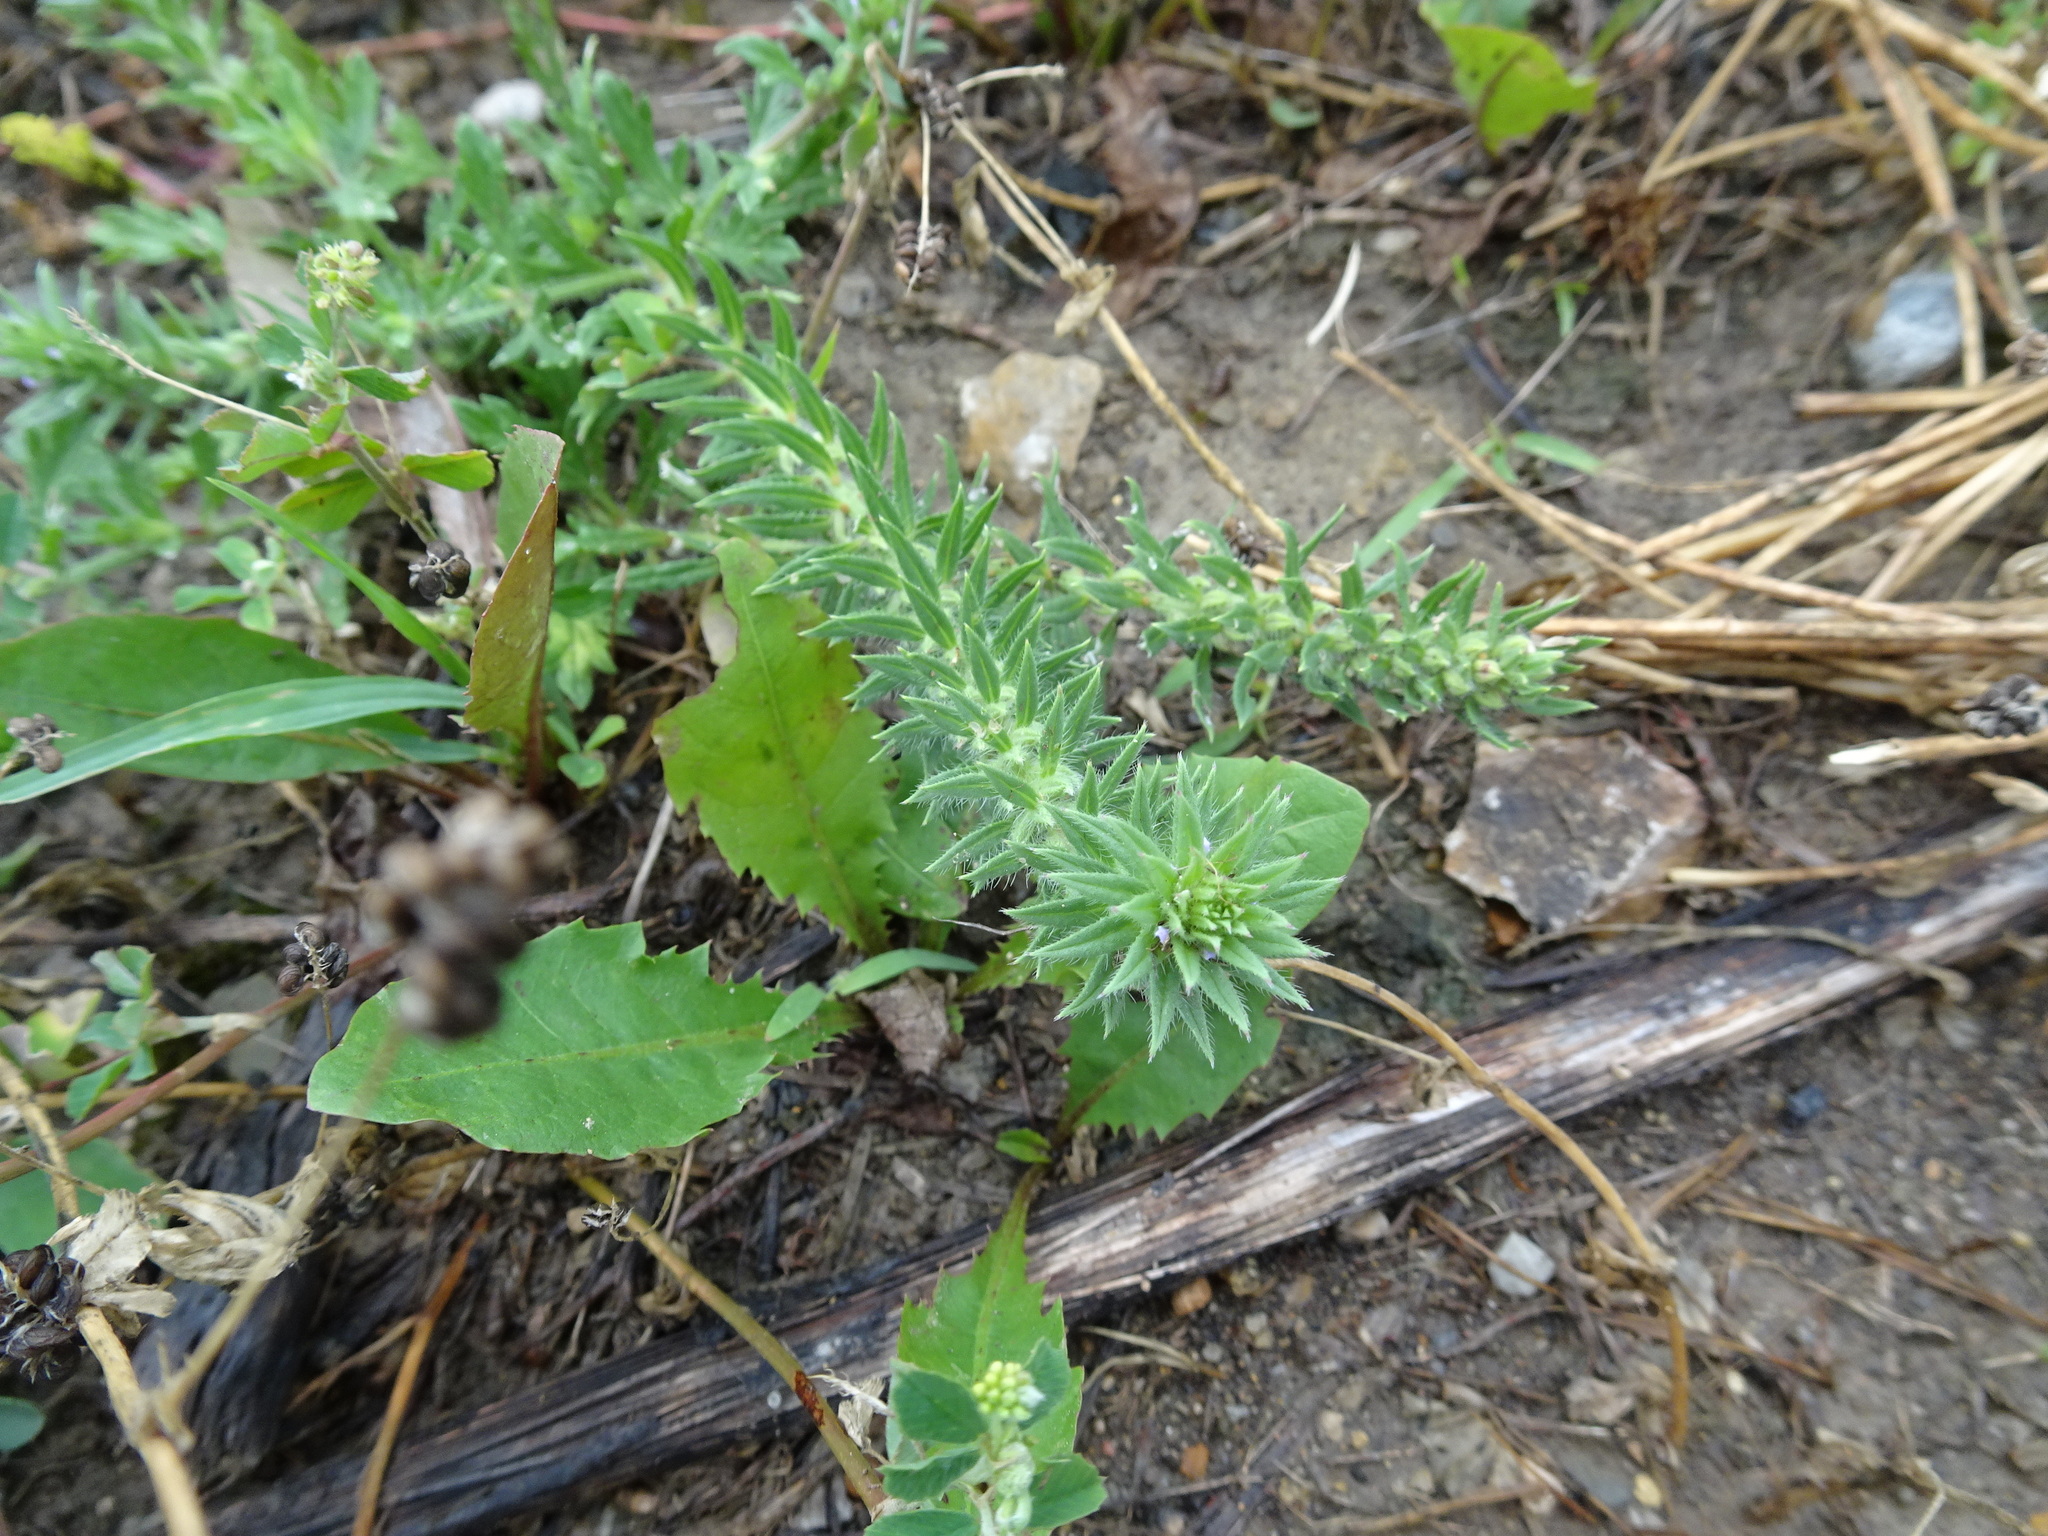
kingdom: Plantae
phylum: Tracheophyta
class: Magnoliopsida
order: Lamiales
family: Verbenaceae
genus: Verbena
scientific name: Verbena bracteata
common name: Bracted vervain
